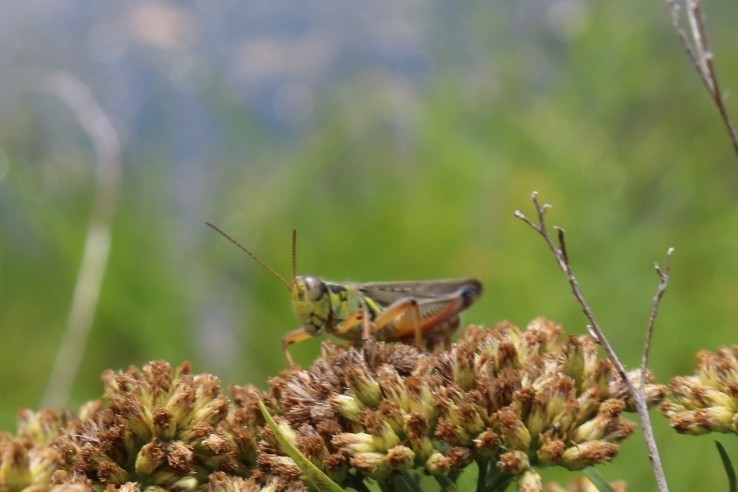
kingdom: Animalia
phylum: Arthropoda
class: Insecta
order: Orthoptera
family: Acrididae
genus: Melanoplus
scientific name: Melanoplus femurrubrum
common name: Red-legged grasshopper
